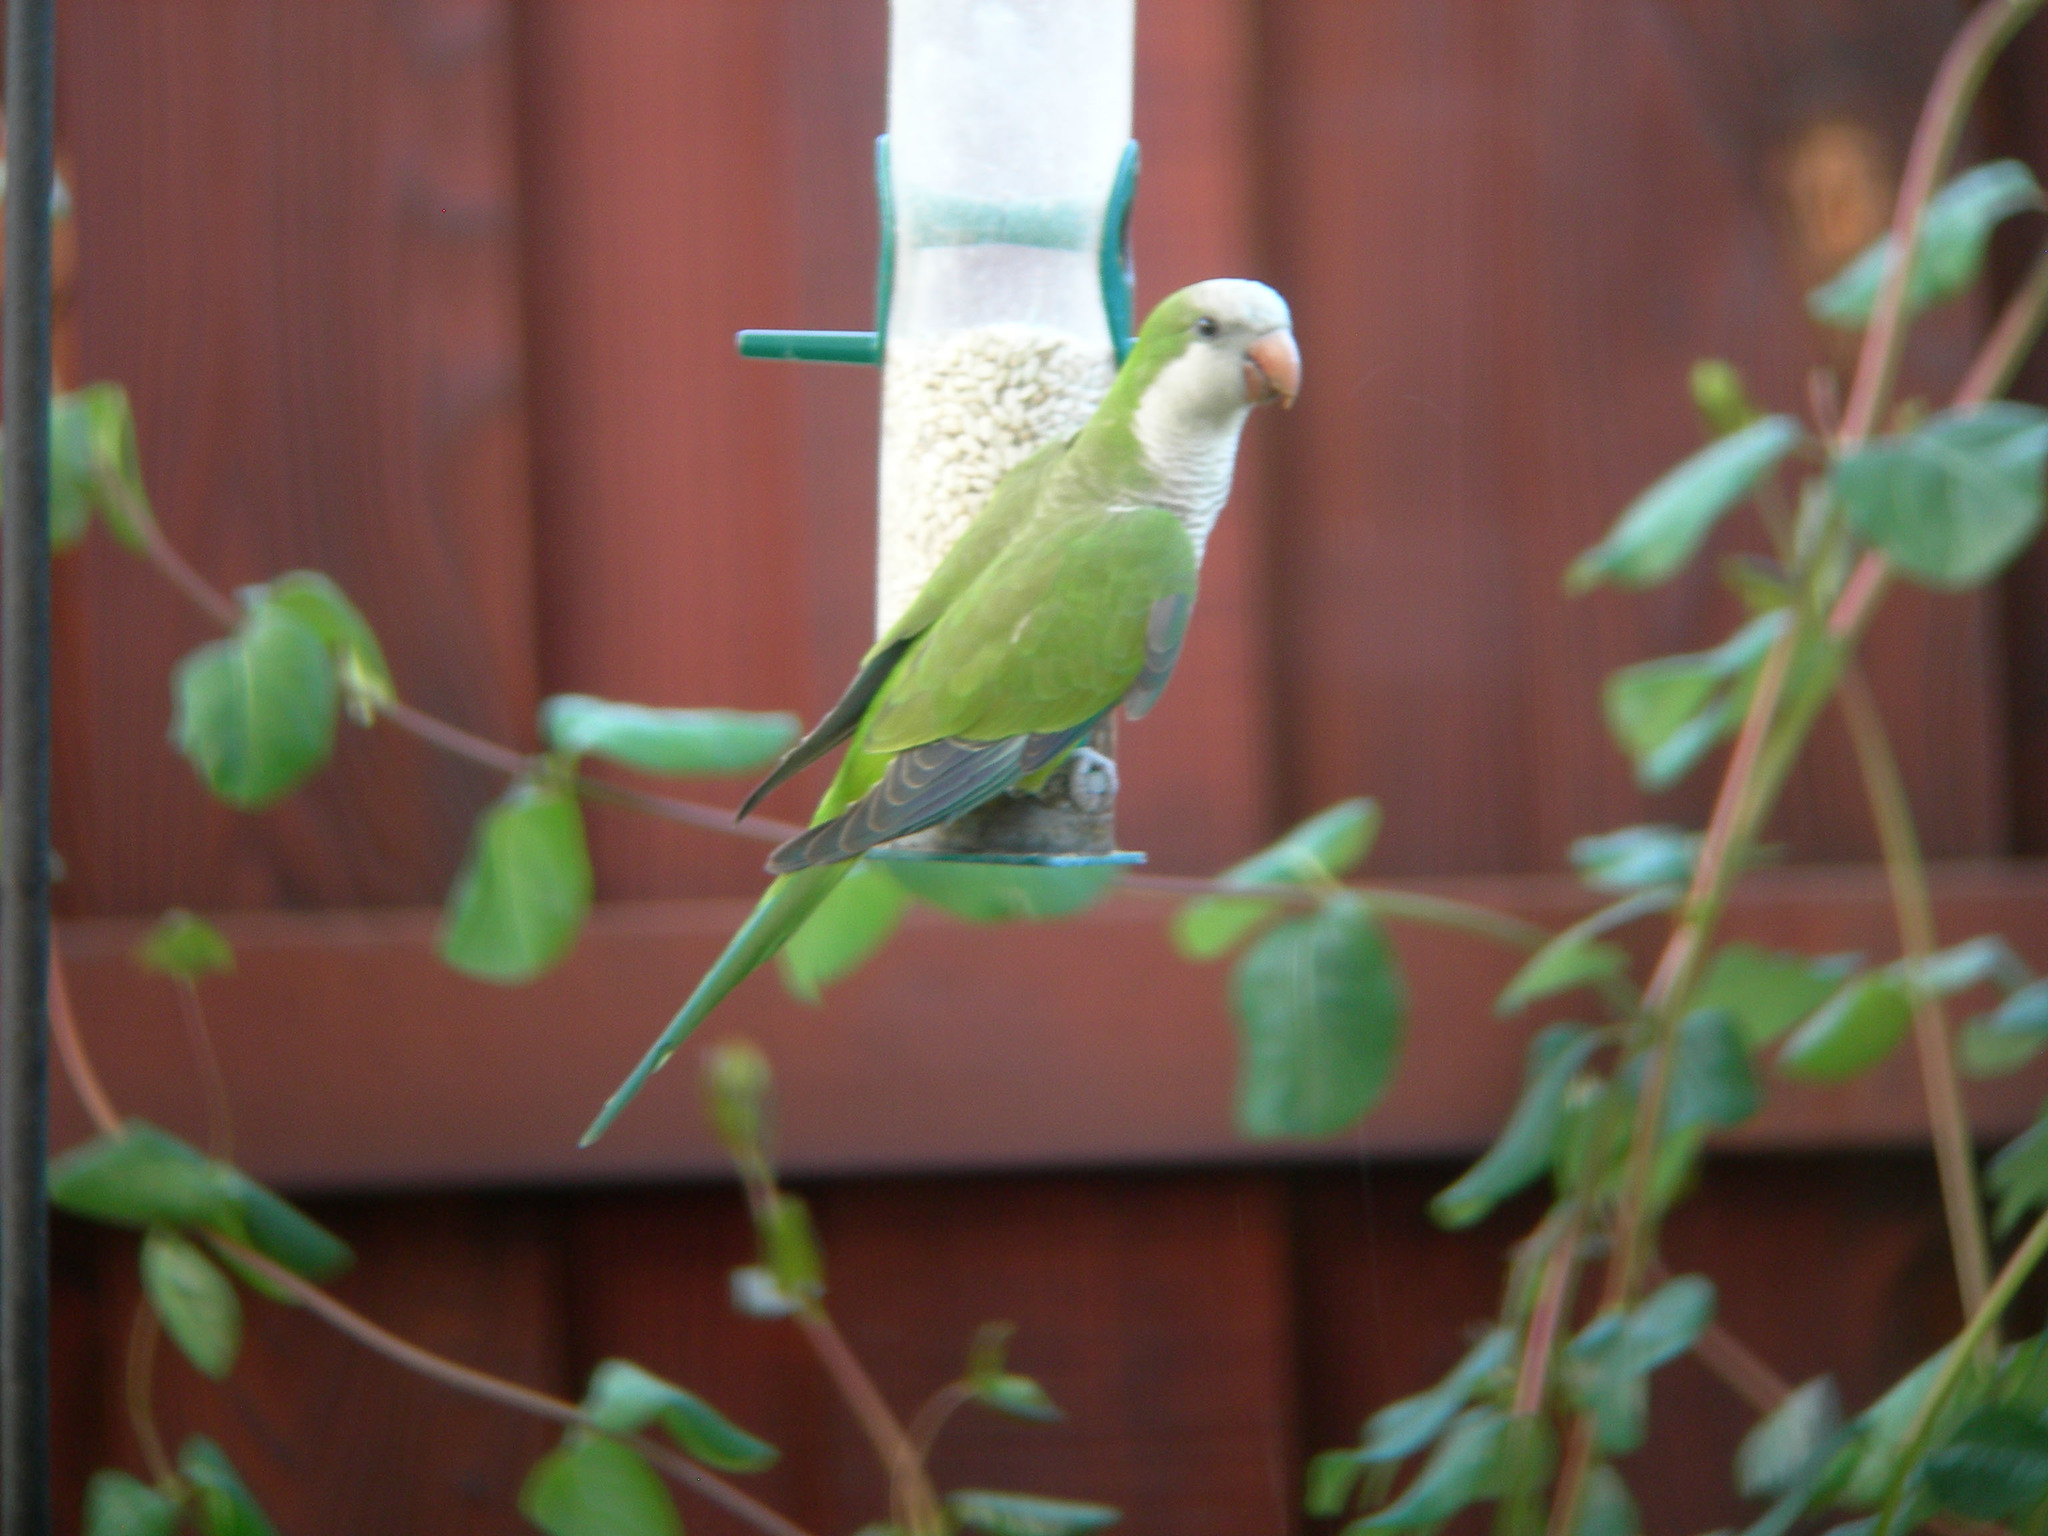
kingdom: Animalia
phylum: Chordata
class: Aves
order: Psittaciformes
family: Psittacidae
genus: Myiopsitta
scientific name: Myiopsitta monachus
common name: Monk parakeet
